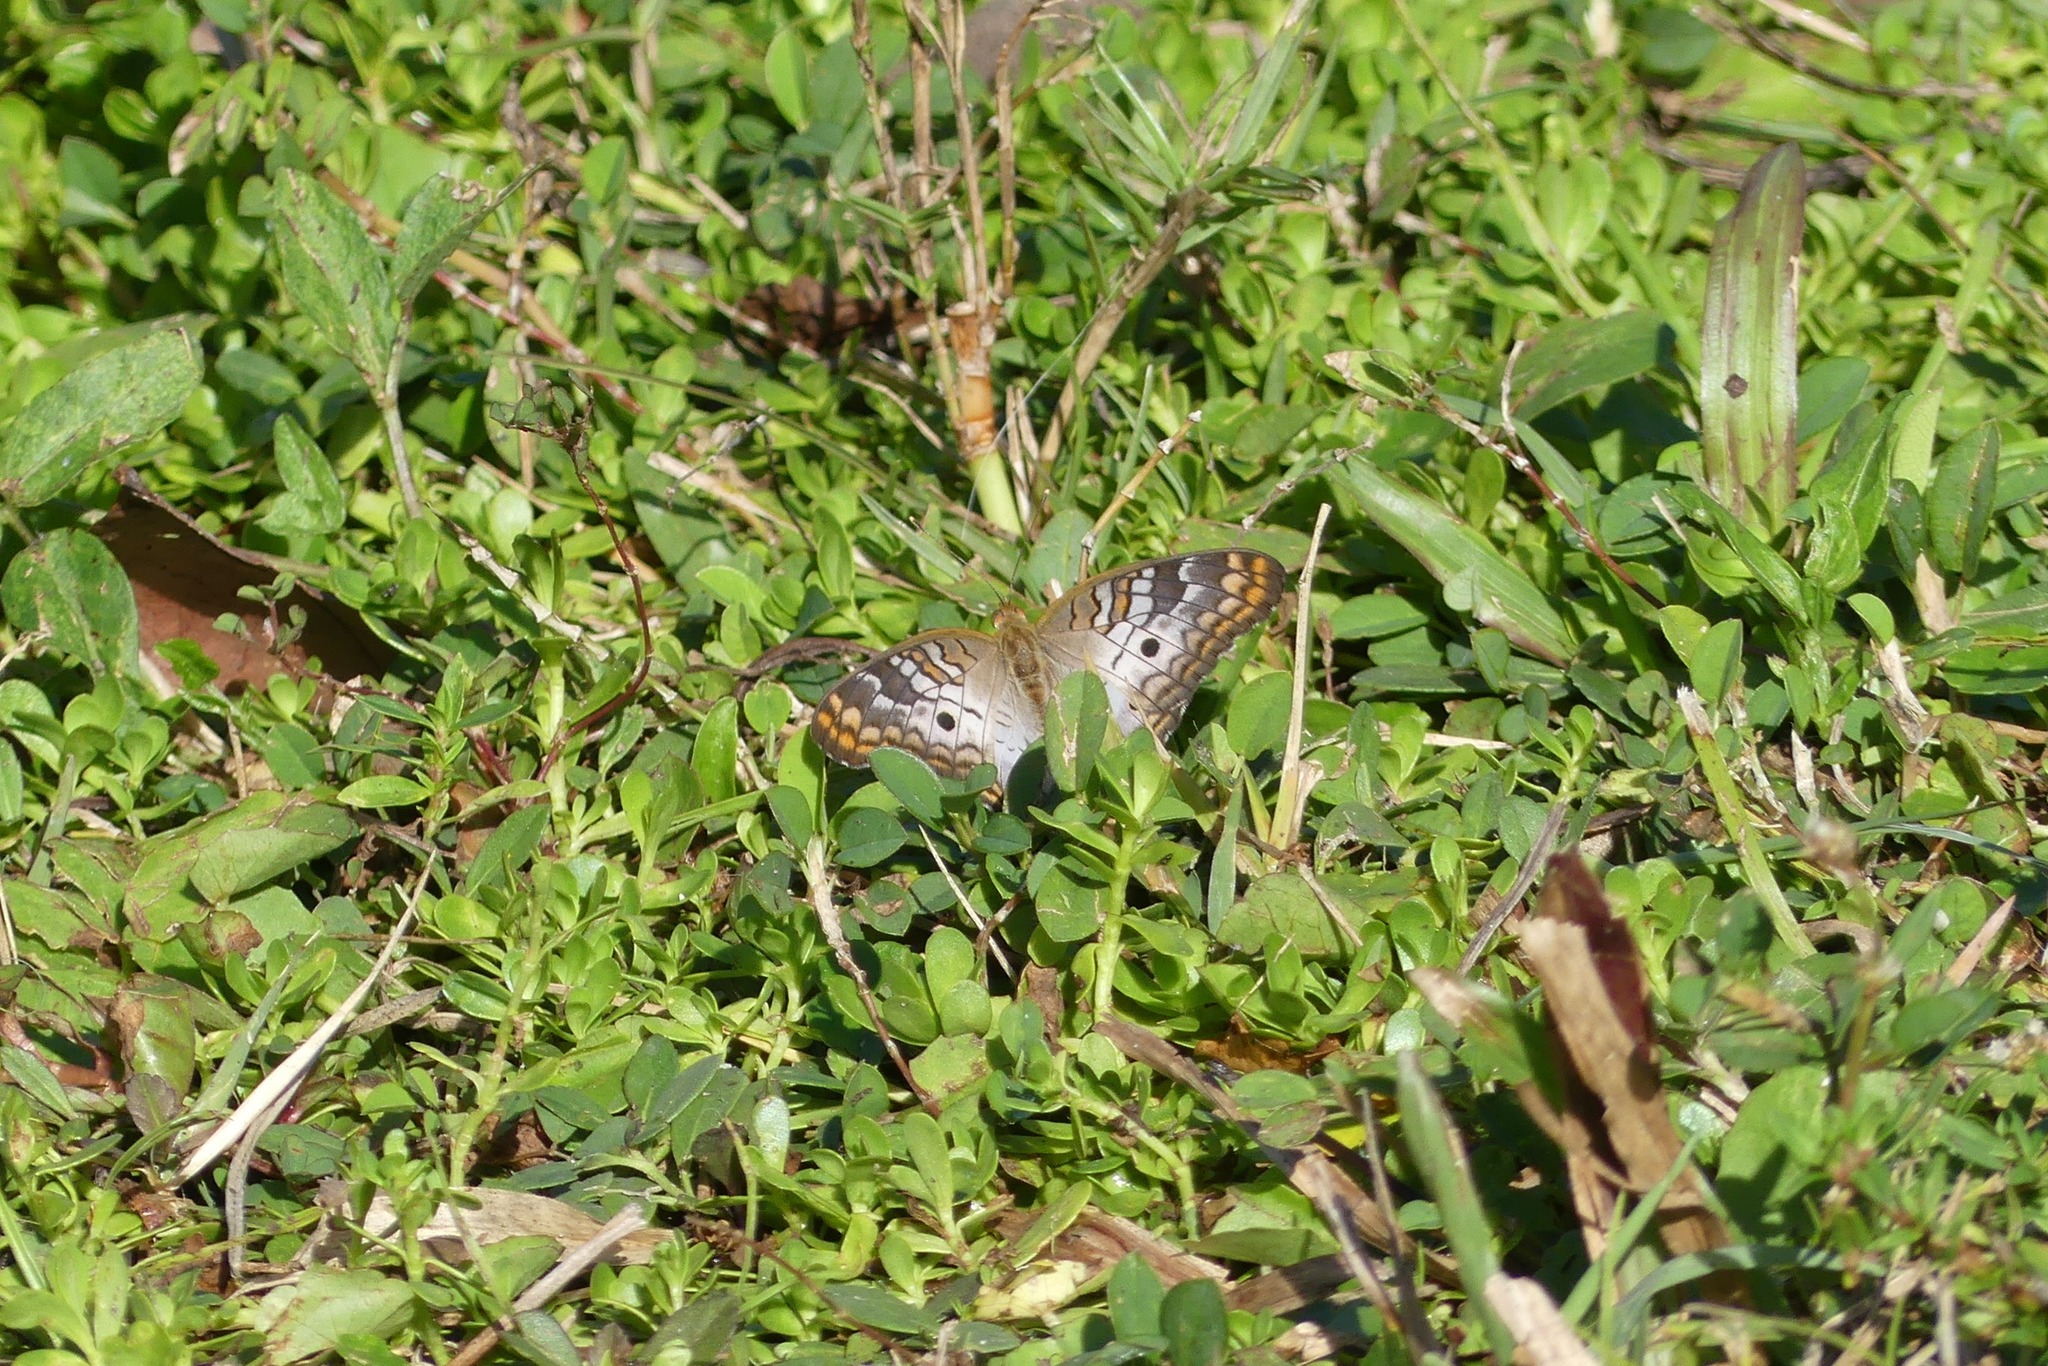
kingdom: Animalia
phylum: Arthropoda
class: Insecta
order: Lepidoptera
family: Nymphalidae
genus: Anartia
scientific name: Anartia jatrophae
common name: White peacock
